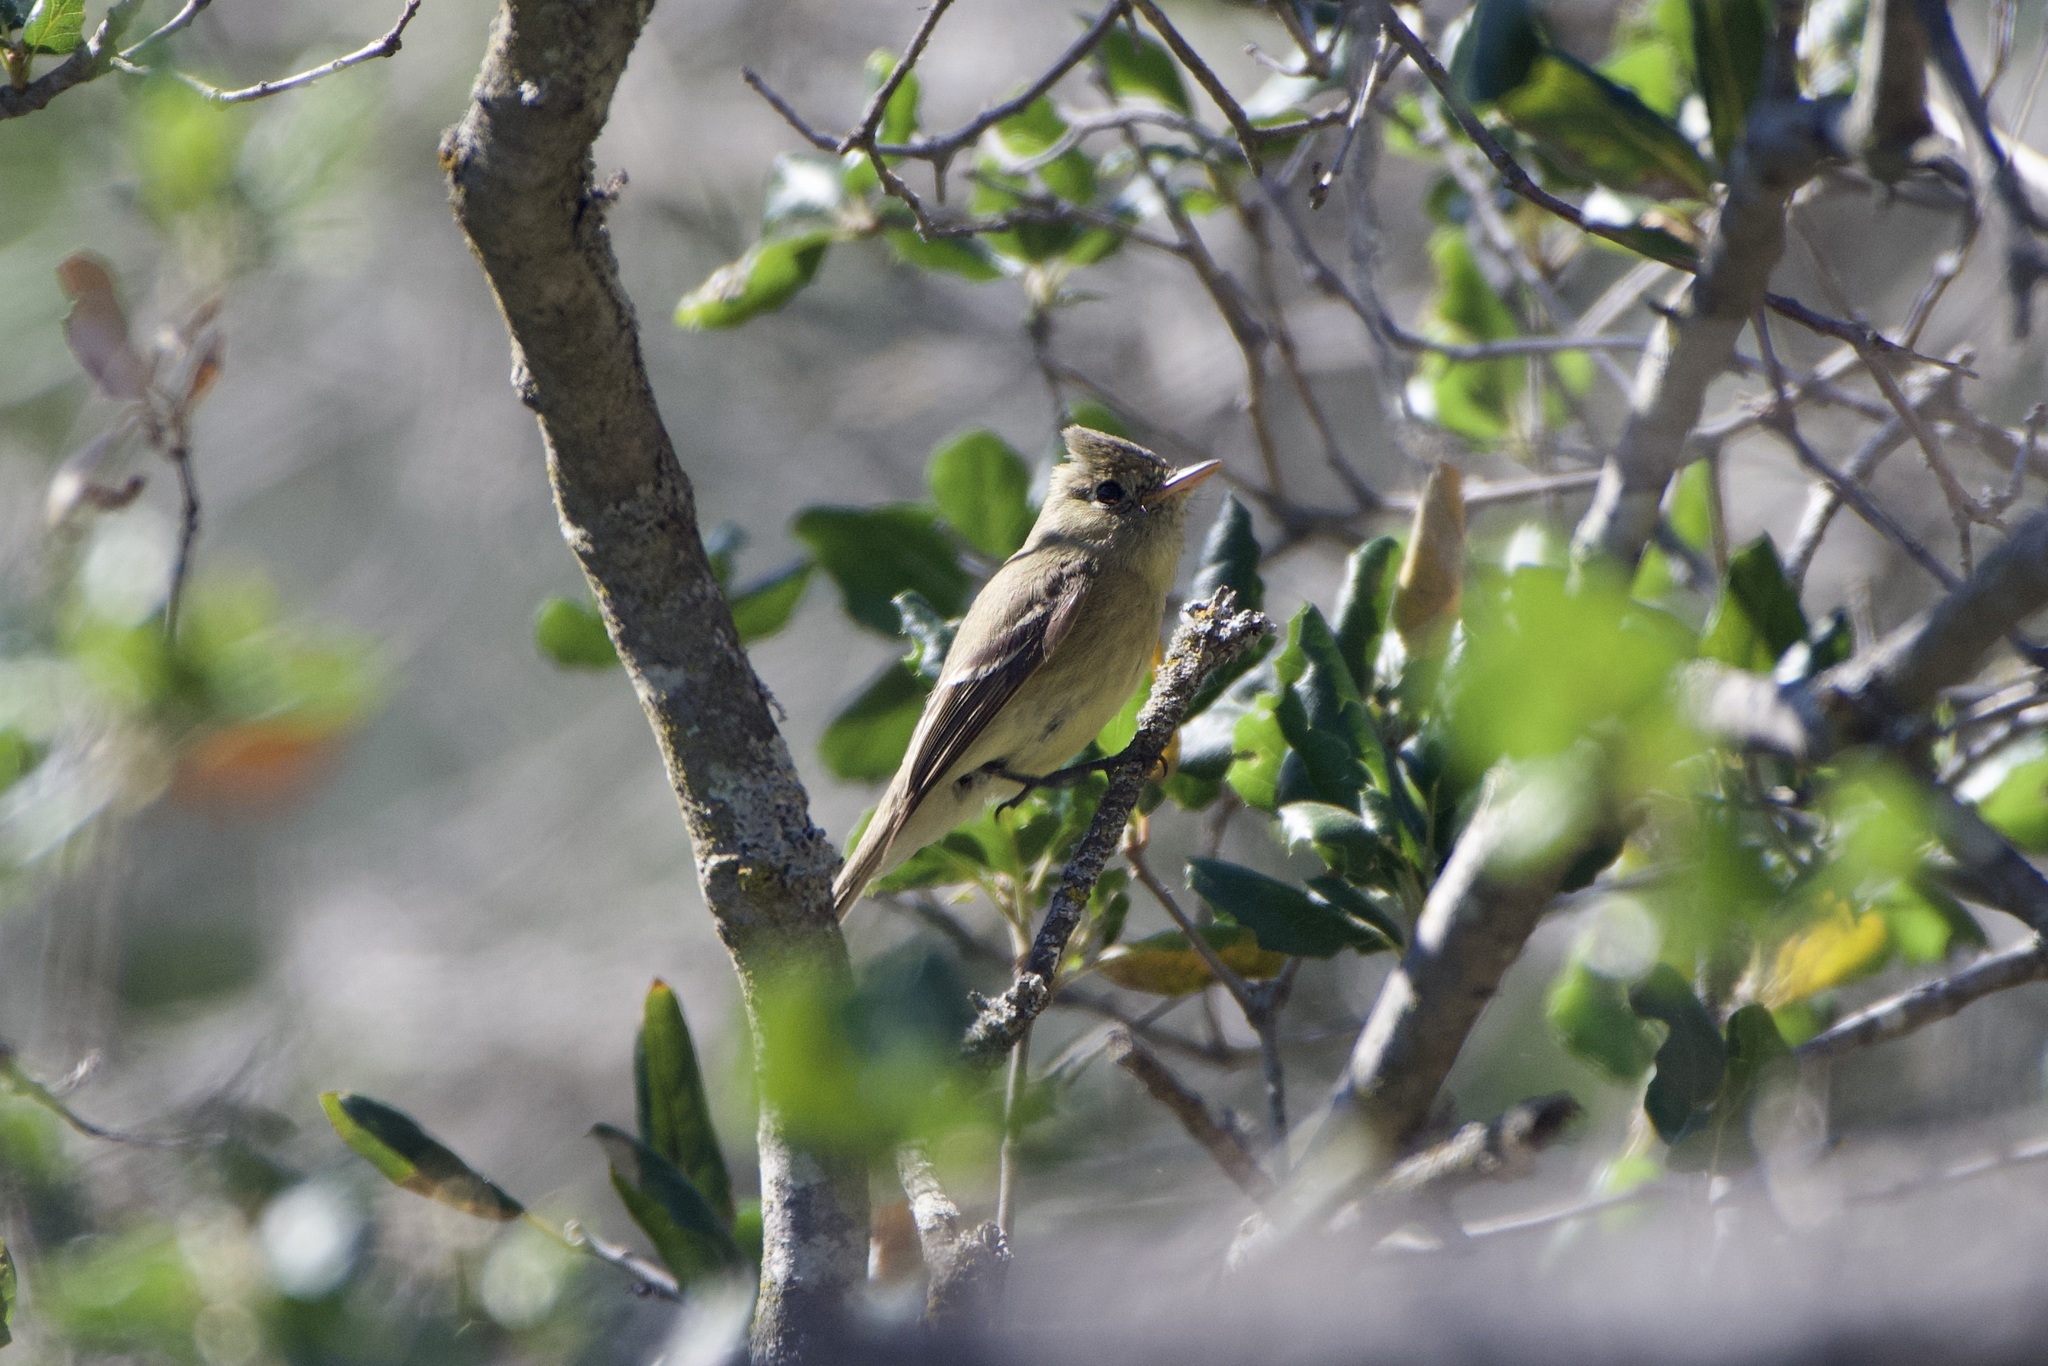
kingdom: Animalia
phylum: Chordata
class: Aves
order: Passeriformes
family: Tyrannidae
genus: Empidonax
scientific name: Empidonax difficilis
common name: Pacific-slope flycatcher
